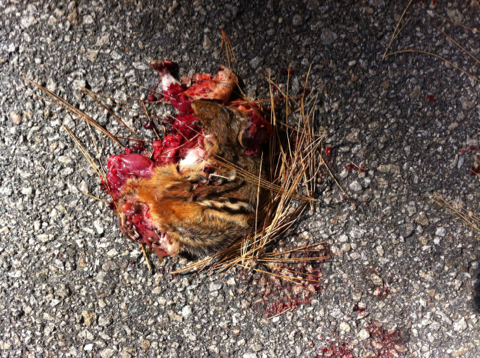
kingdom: Animalia
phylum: Chordata
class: Mammalia
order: Rodentia
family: Sciuridae
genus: Tamias
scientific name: Tamias striatus
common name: Eastern chipmunk
